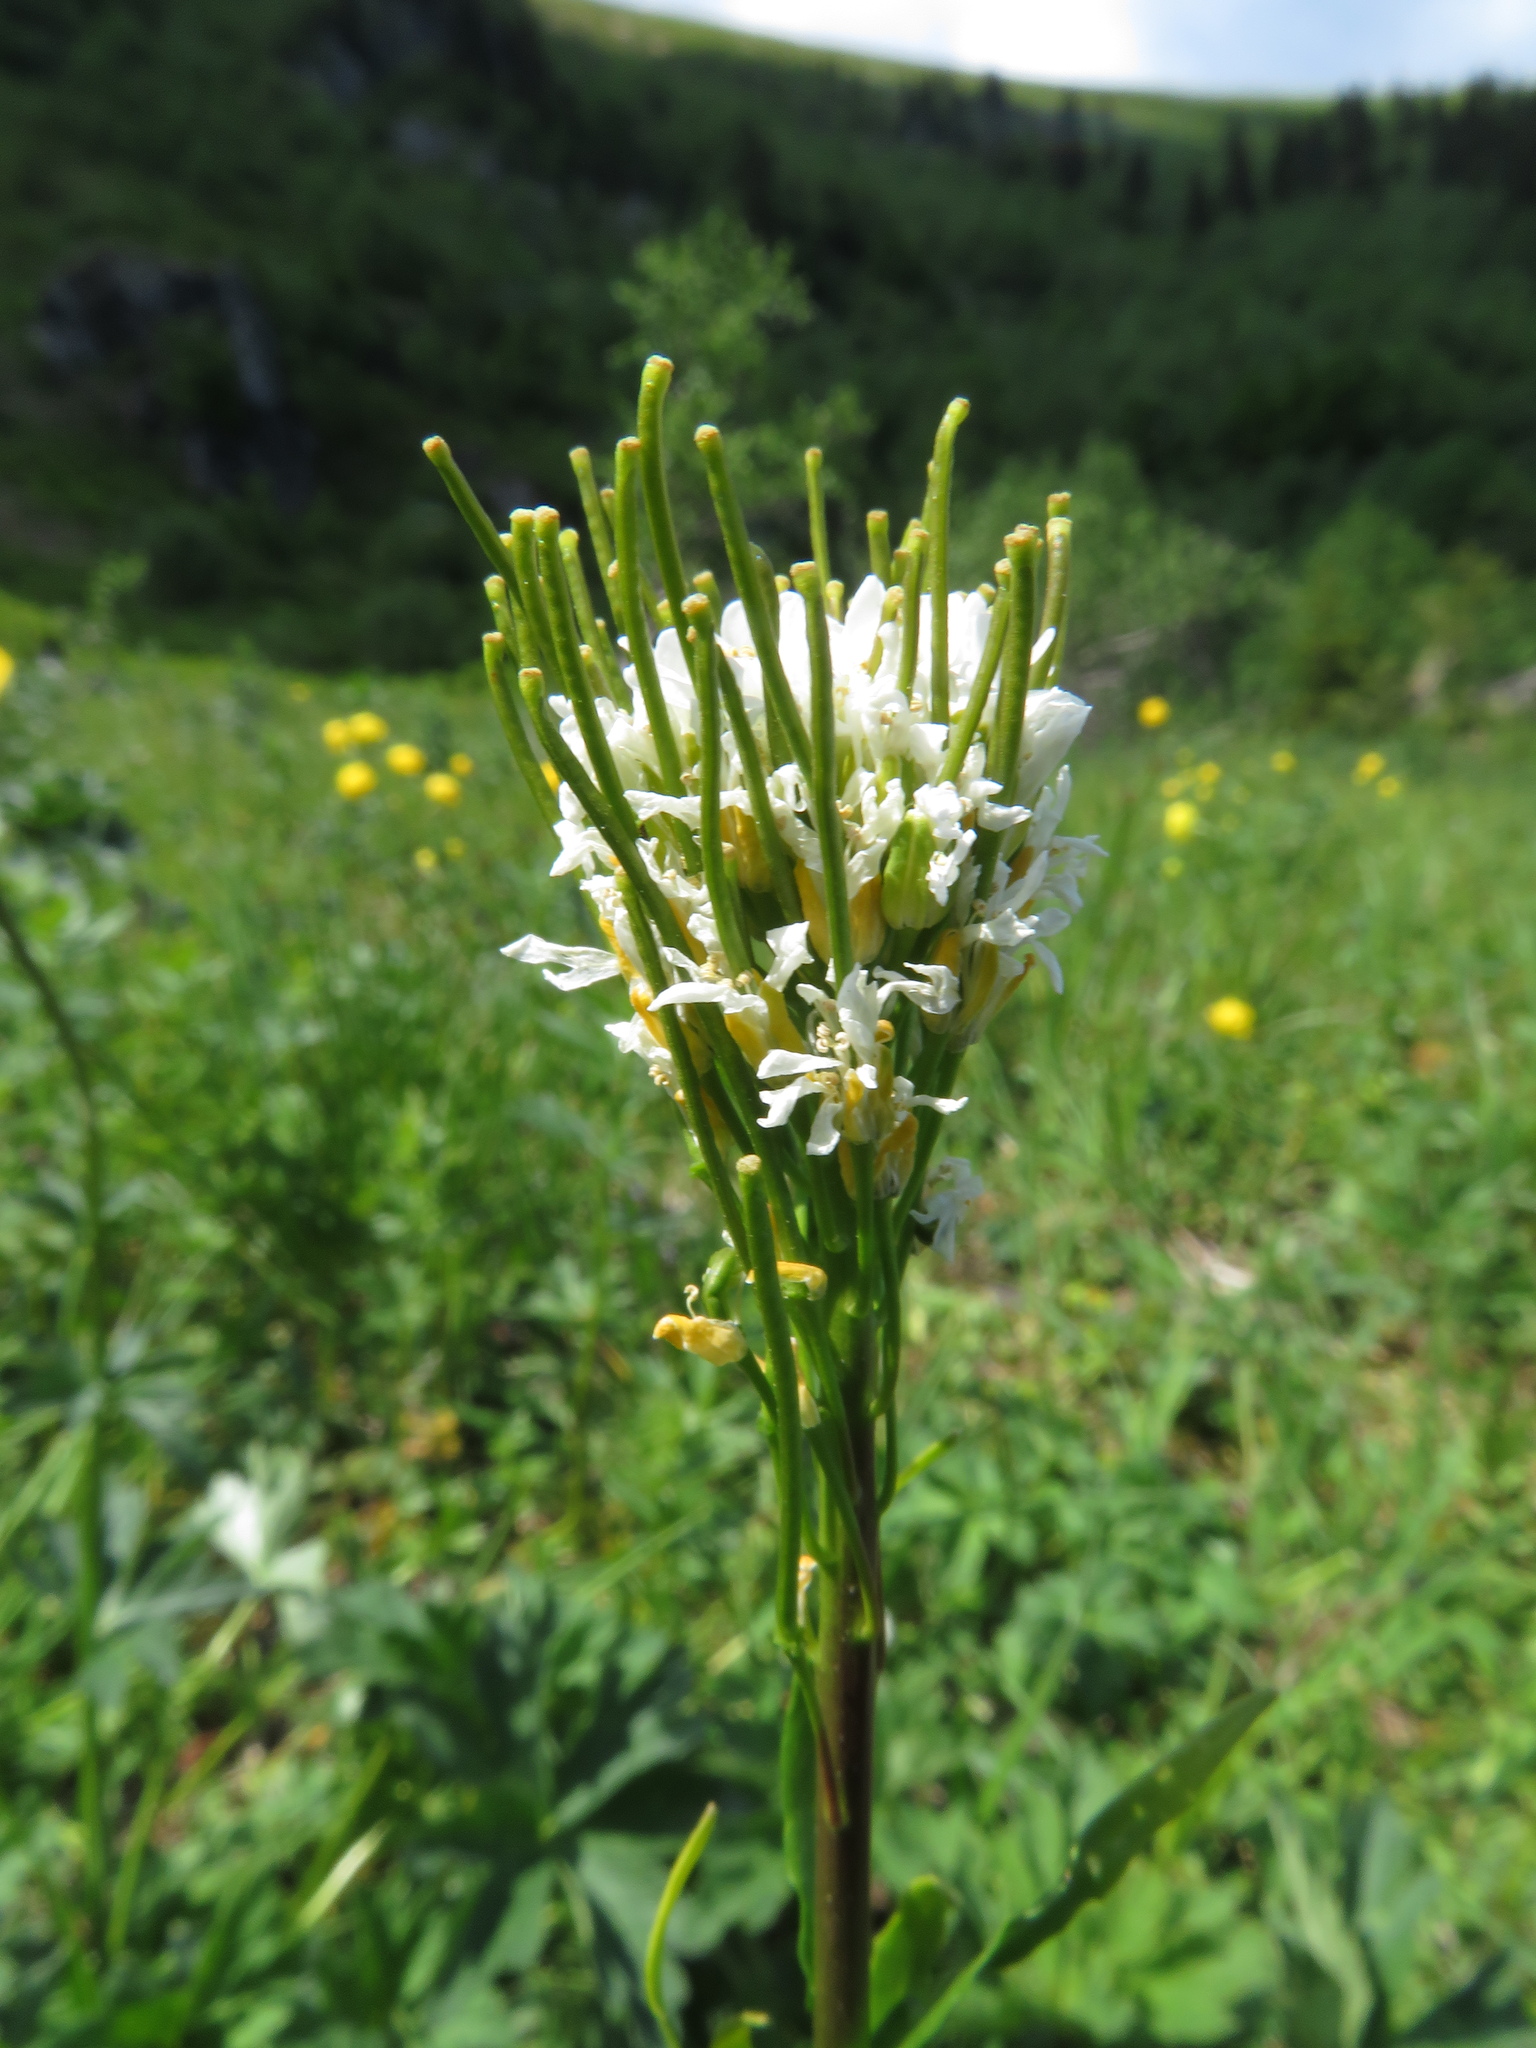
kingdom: Plantae
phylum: Tracheophyta
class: Magnoliopsida
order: Brassicales
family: Brassicaceae
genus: Arabis
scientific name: Arabis sudetica
